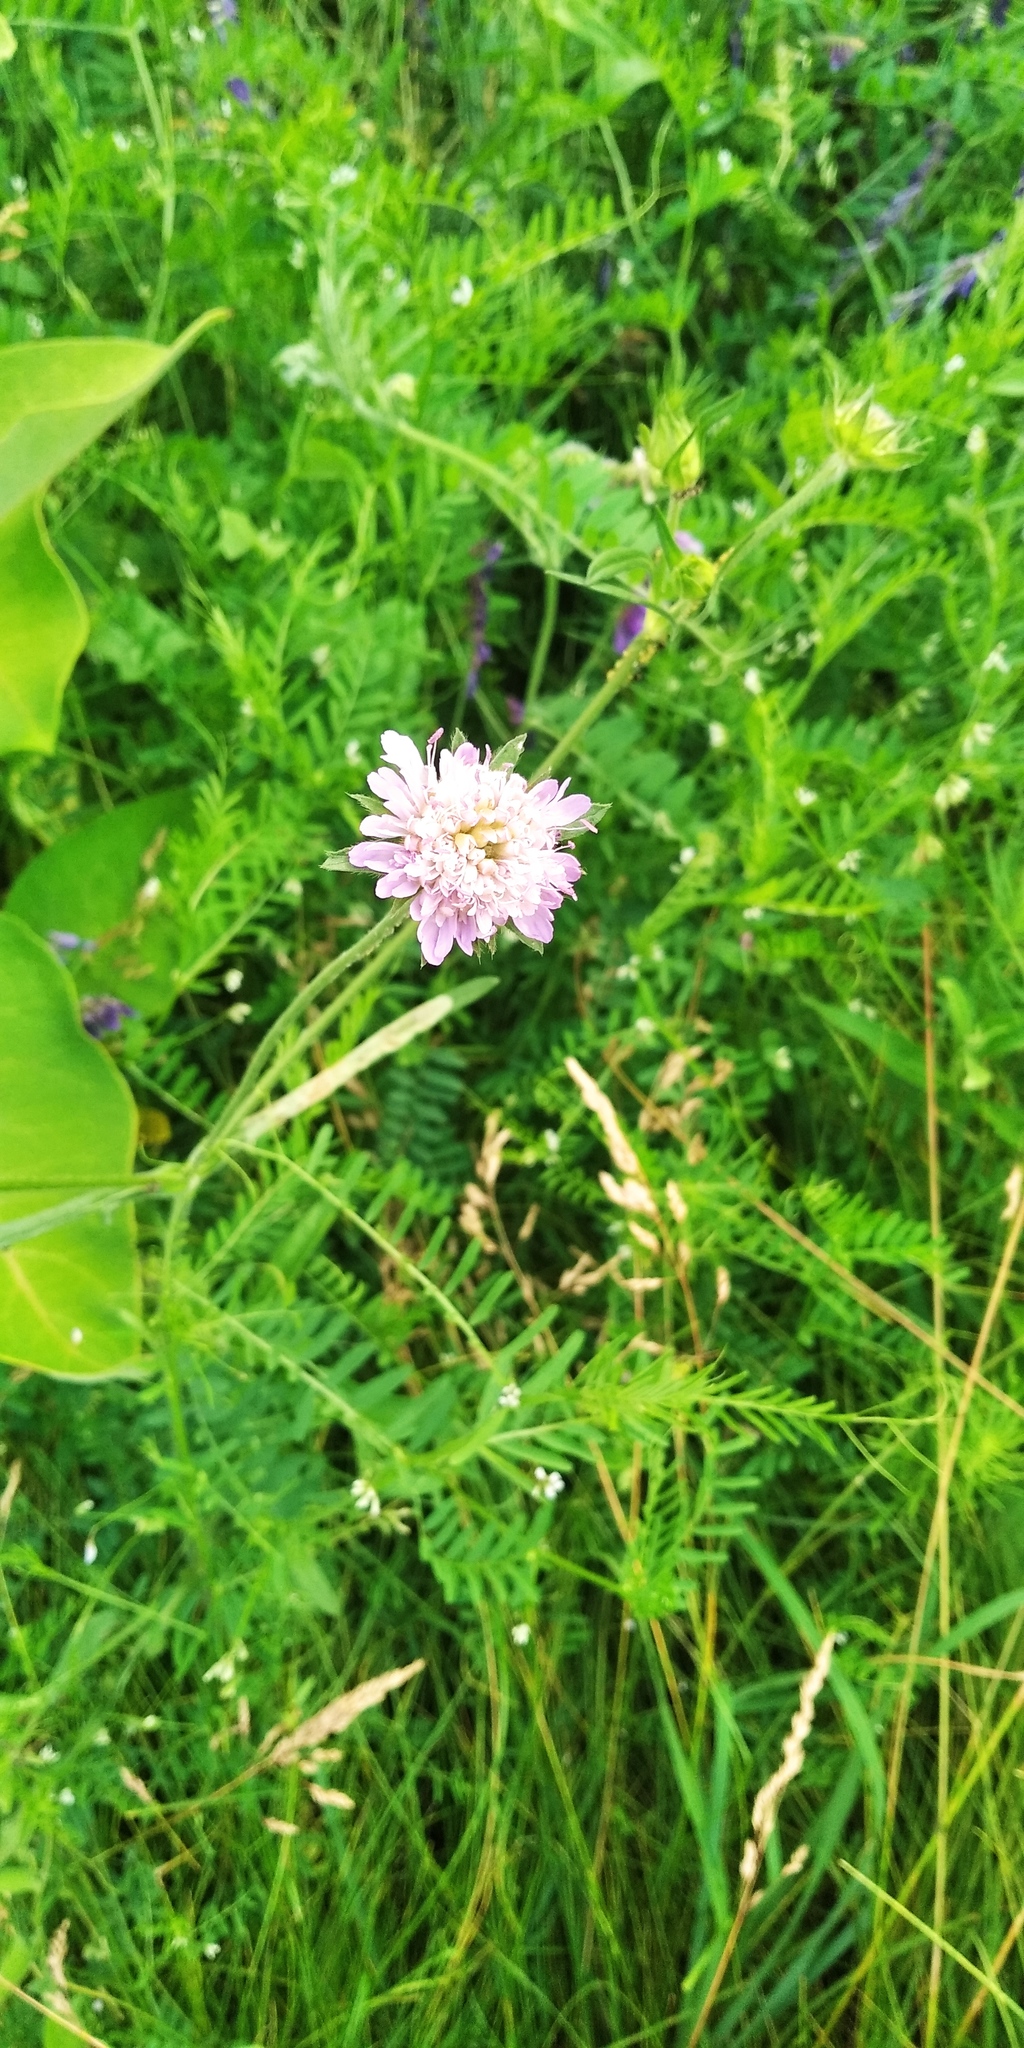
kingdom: Plantae
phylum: Tracheophyta
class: Magnoliopsida
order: Dipsacales
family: Caprifoliaceae
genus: Knautia
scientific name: Knautia arvensis
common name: Field scabiosa
